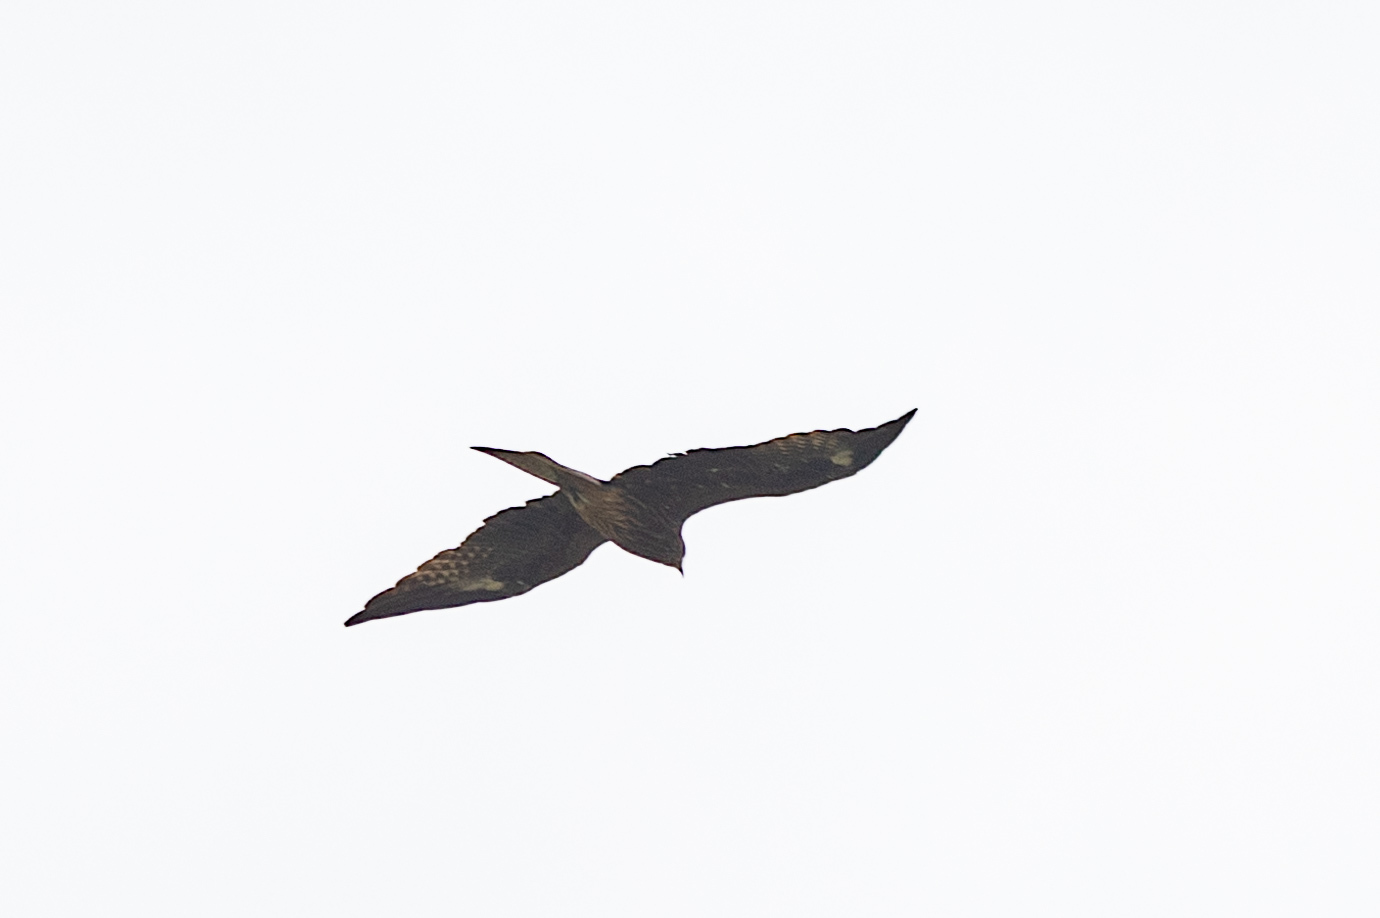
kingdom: Animalia
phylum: Chordata
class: Aves
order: Accipitriformes
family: Accipitridae
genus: Milvus
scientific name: Milvus migrans
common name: Black kite
